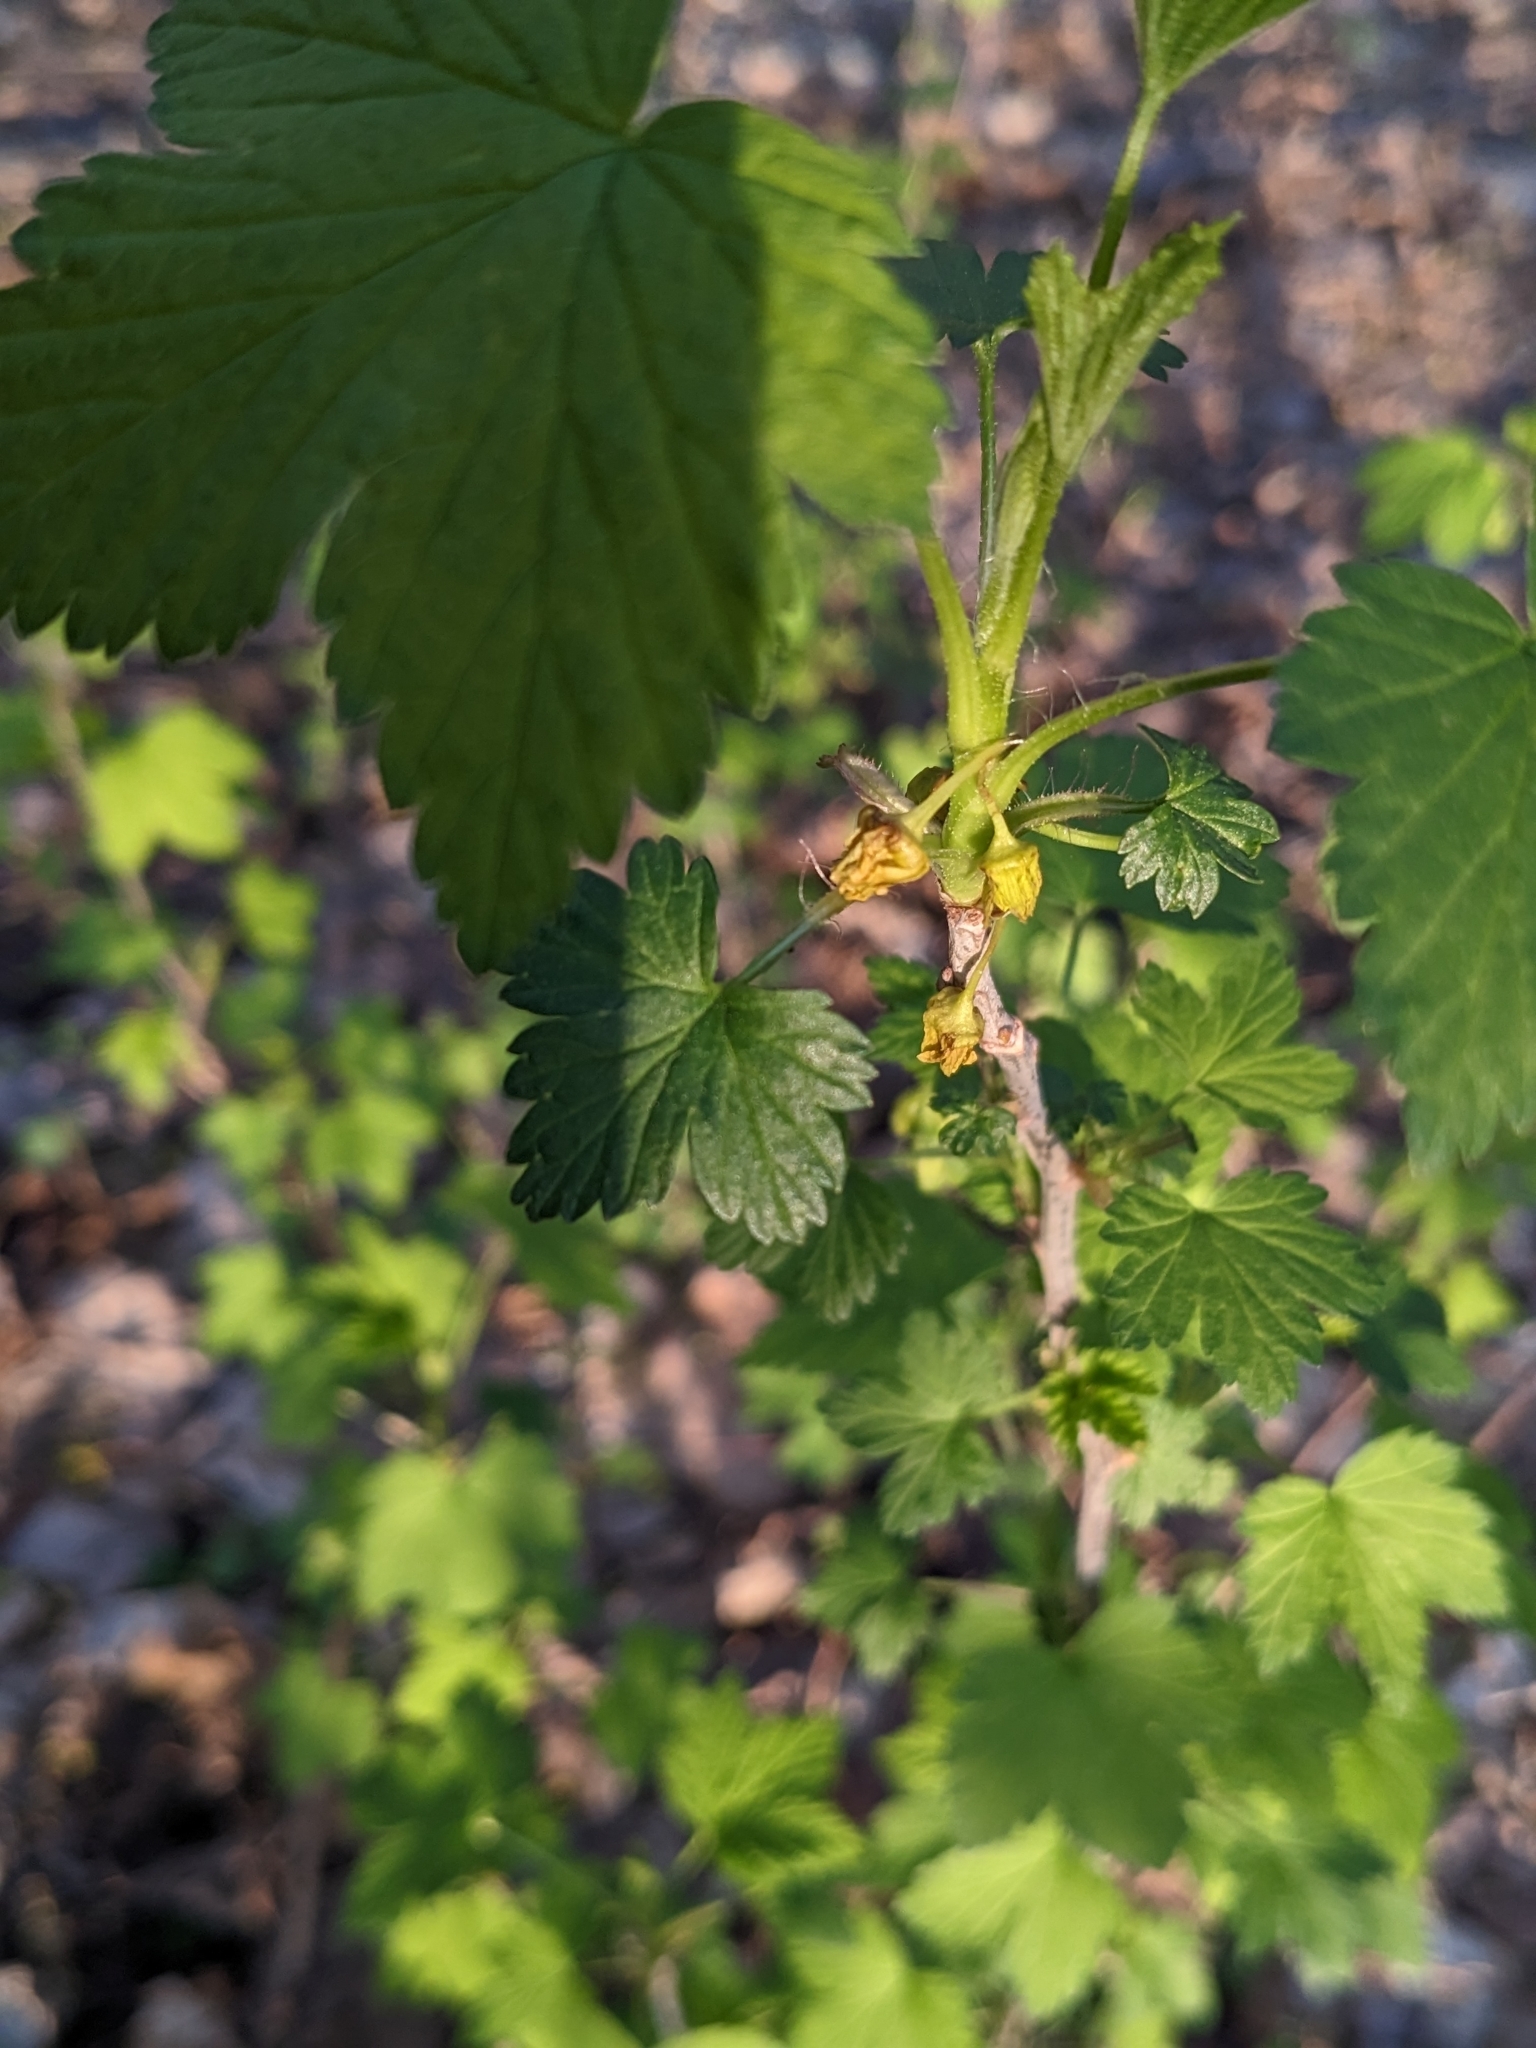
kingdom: Plantae
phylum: Tracheophyta
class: Magnoliopsida
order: Saxifragales
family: Grossulariaceae
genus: Ribes
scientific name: Ribes americanum
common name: American black currant
